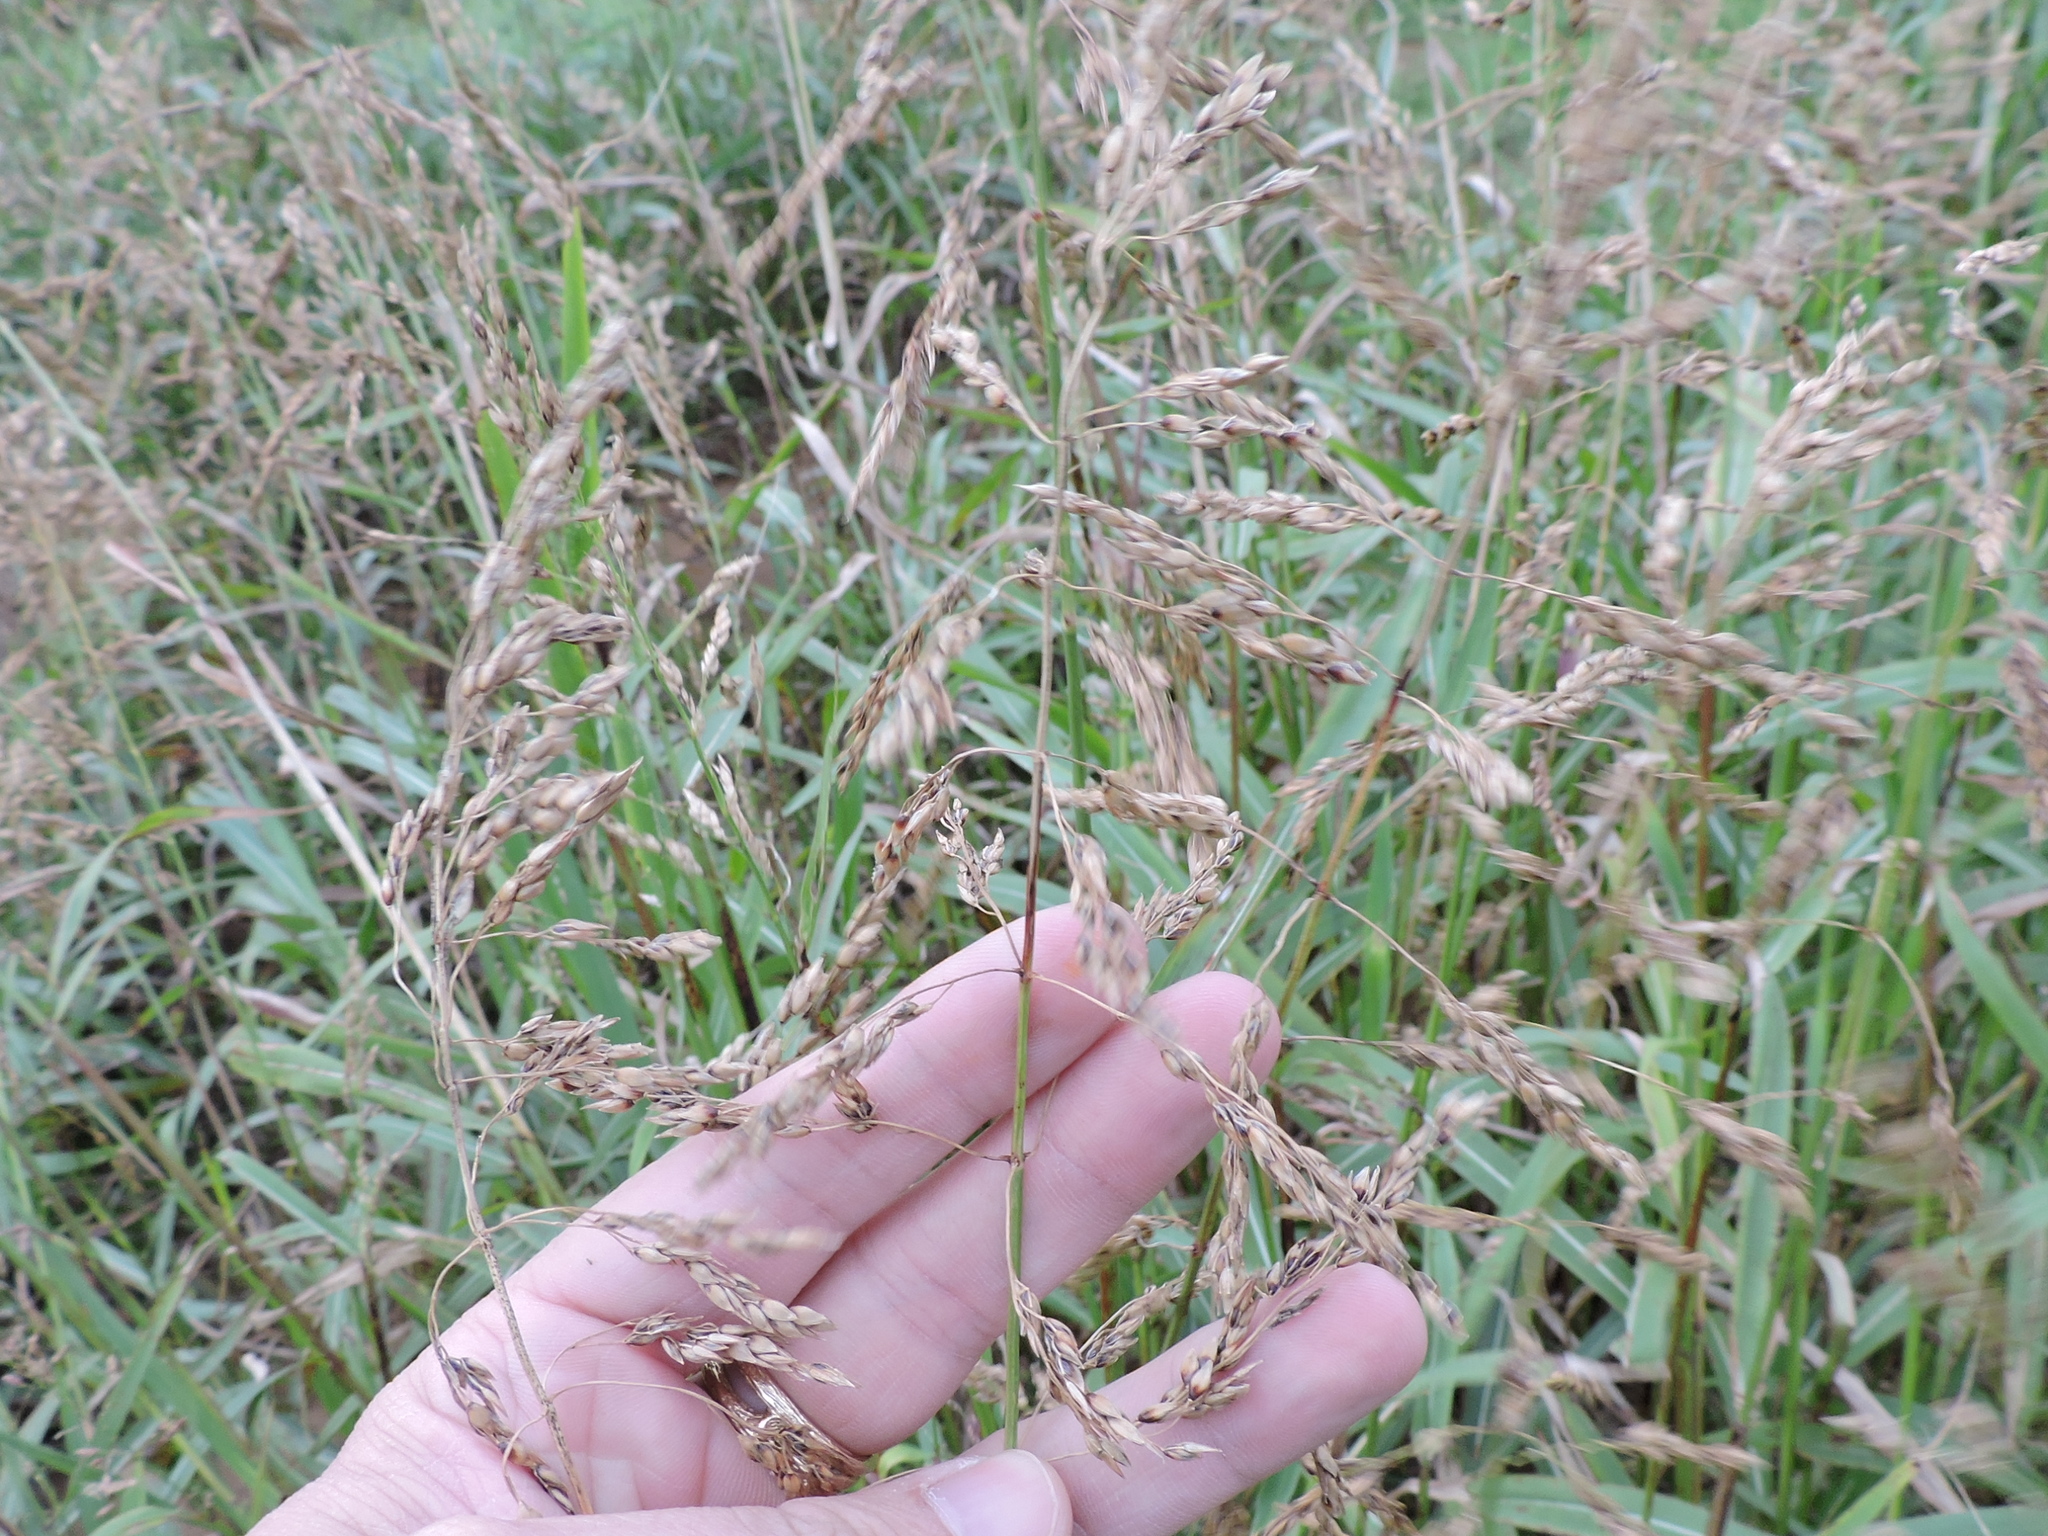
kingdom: Plantae
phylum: Tracheophyta
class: Liliopsida
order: Poales
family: Poaceae
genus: Sorghum
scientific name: Sorghum halepense
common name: Johnson-grass
